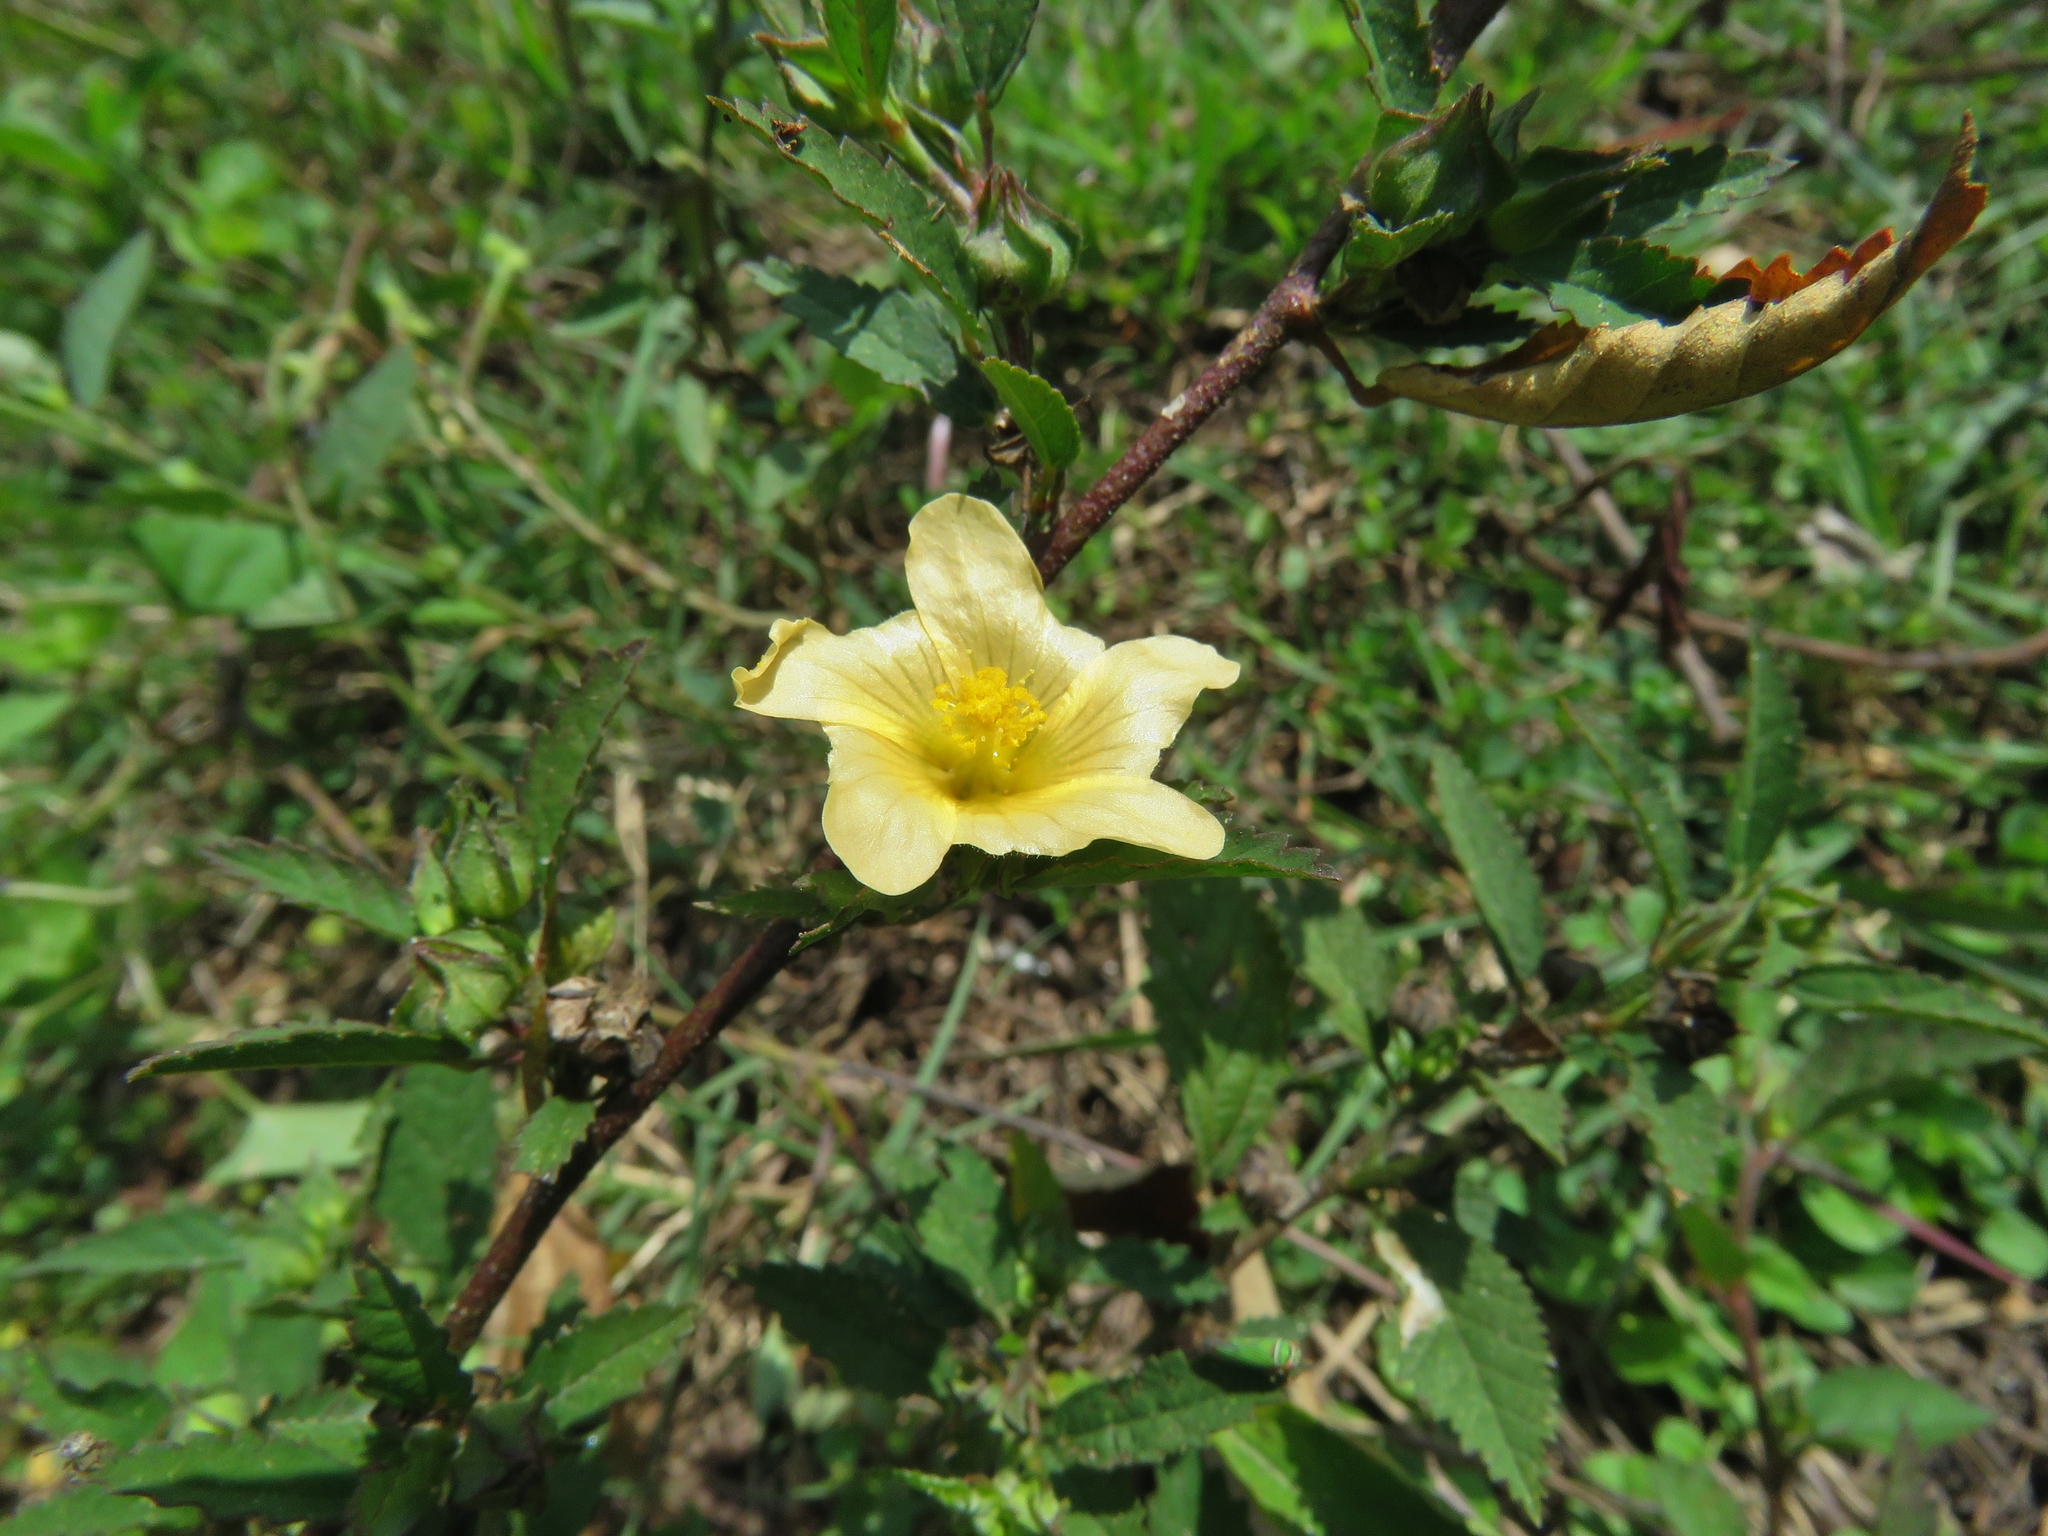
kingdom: Plantae
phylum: Tracheophyta
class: Magnoliopsida
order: Malvales
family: Malvaceae
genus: Sida
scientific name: Sida acuta
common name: Common wireweed
